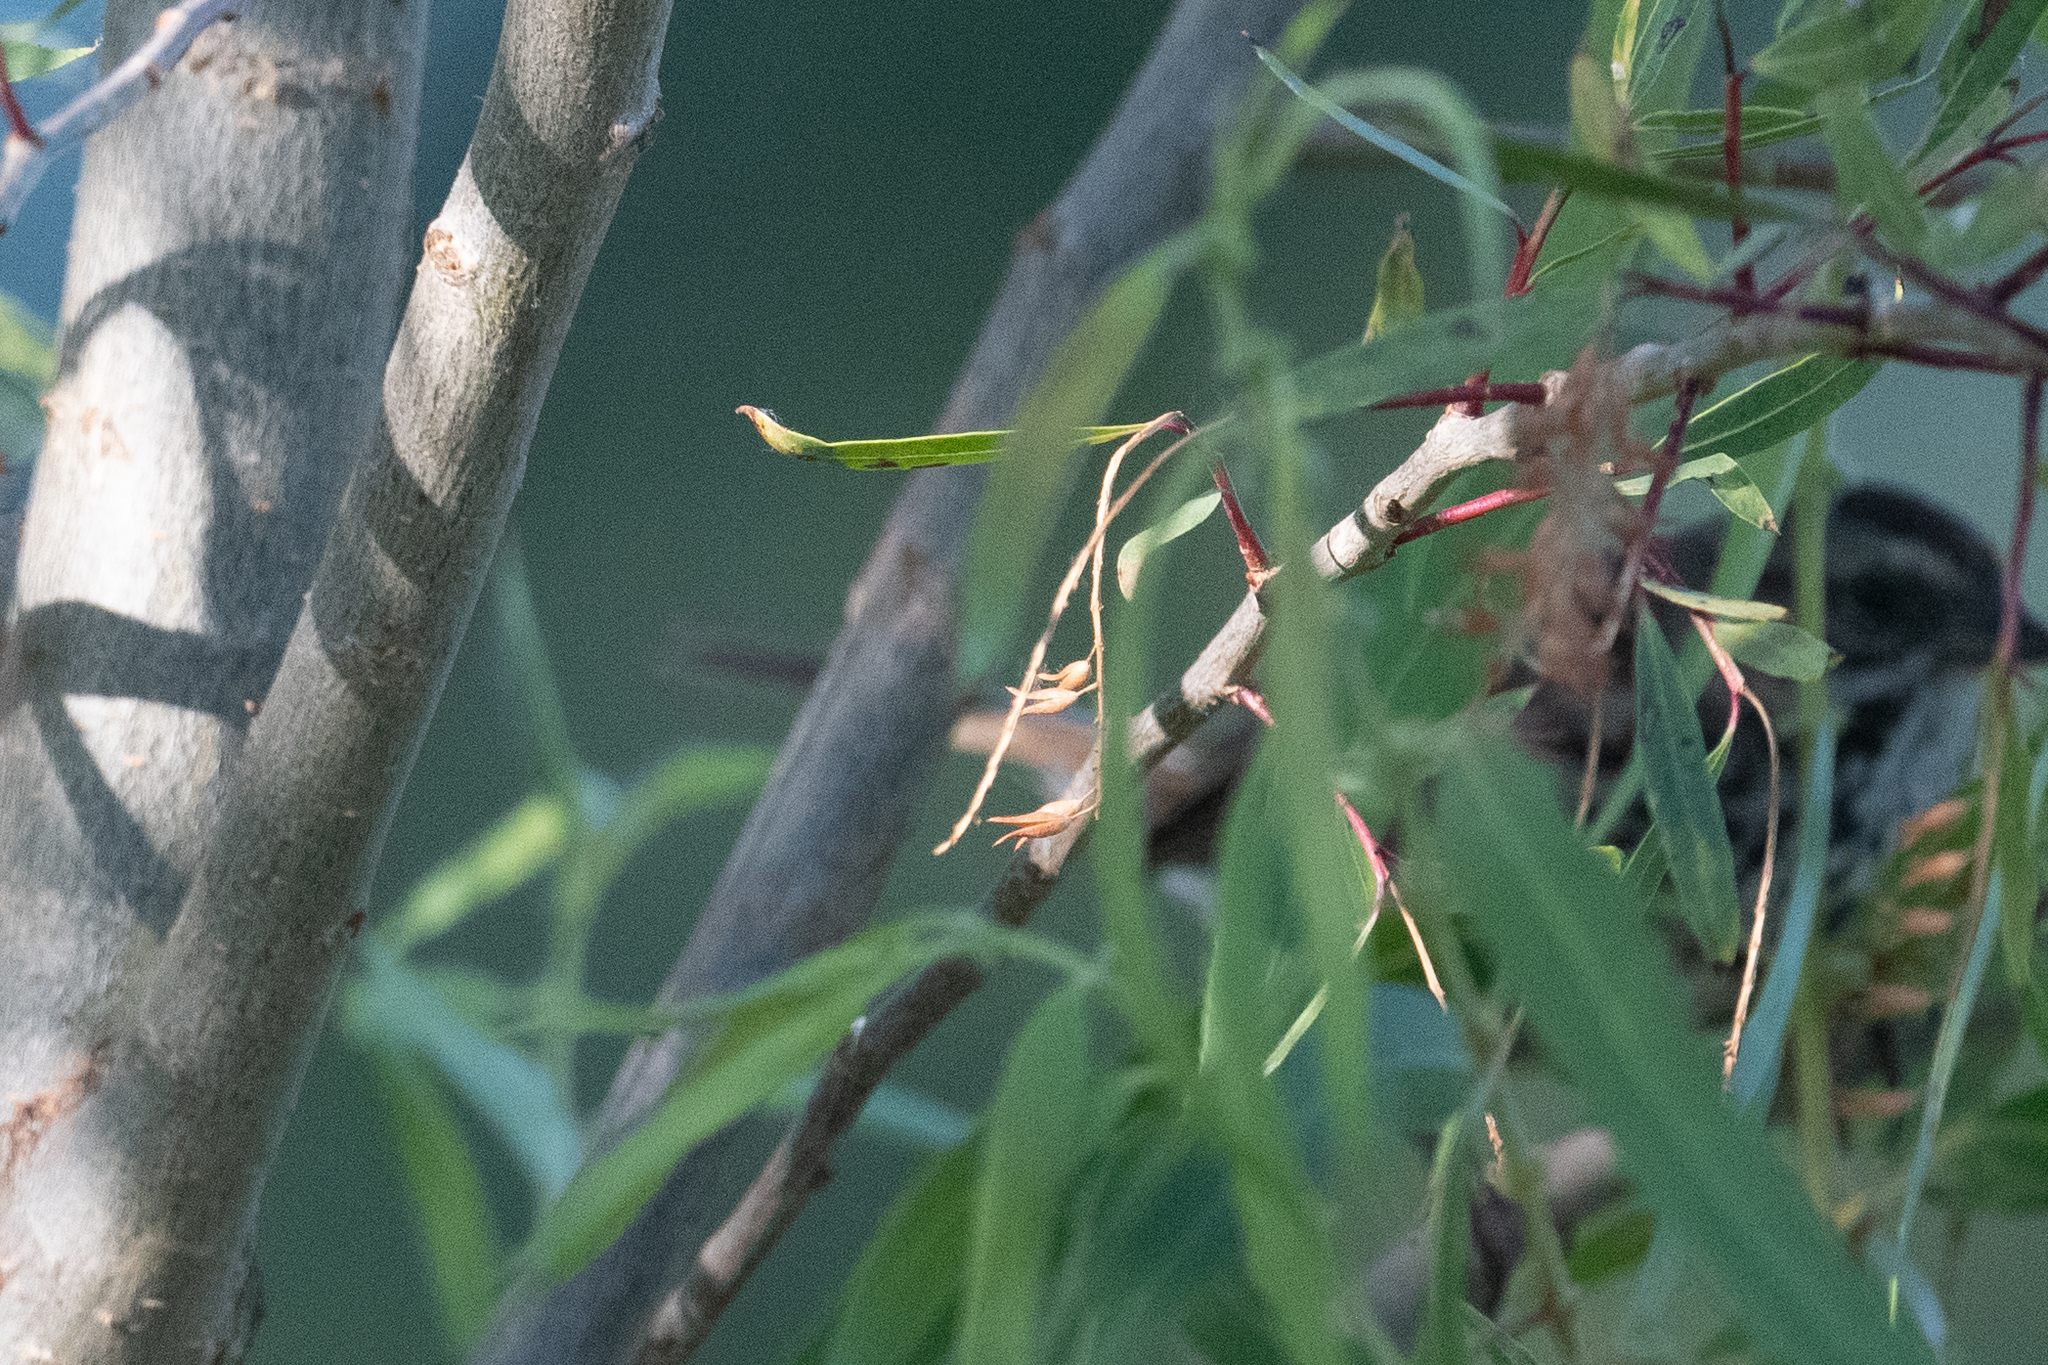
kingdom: Animalia
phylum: Chordata
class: Aves
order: Passeriformes
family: Passerellidae
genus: Melospiza
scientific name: Melospiza melodia
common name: Song sparrow
